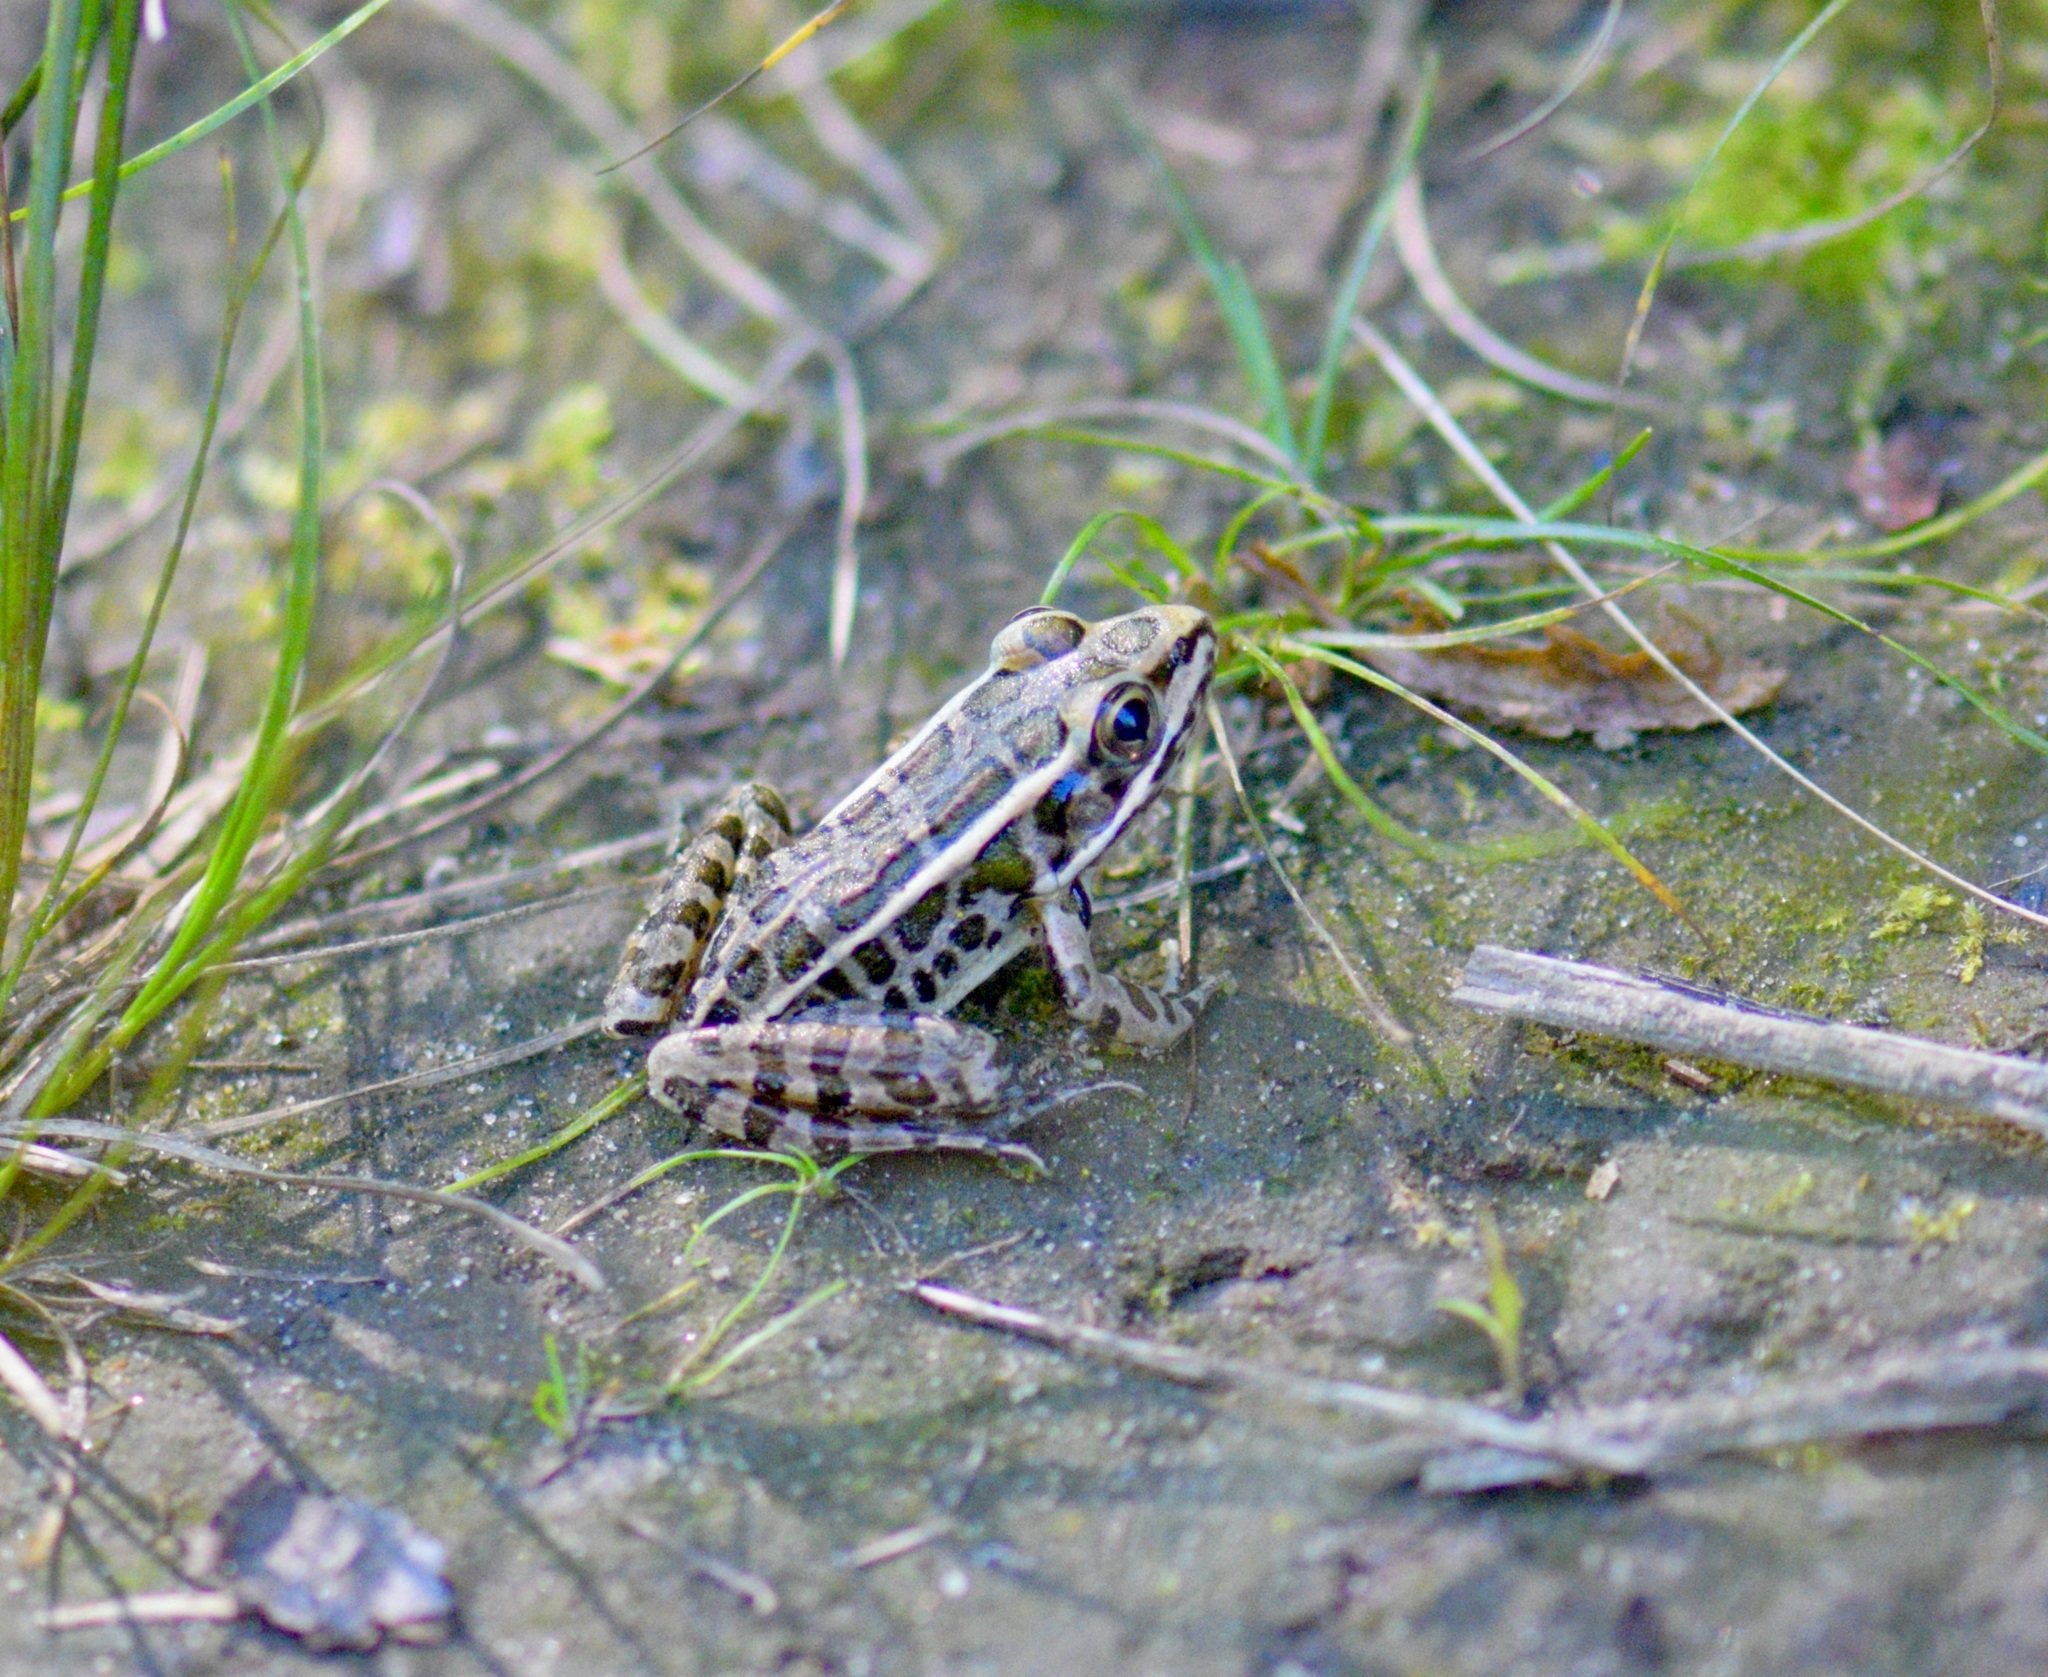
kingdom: Animalia
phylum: Chordata
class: Amphibia
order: Anura
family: Ranidae
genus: Lithobates
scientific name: Lithobates palustris
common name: Pickerel frog
